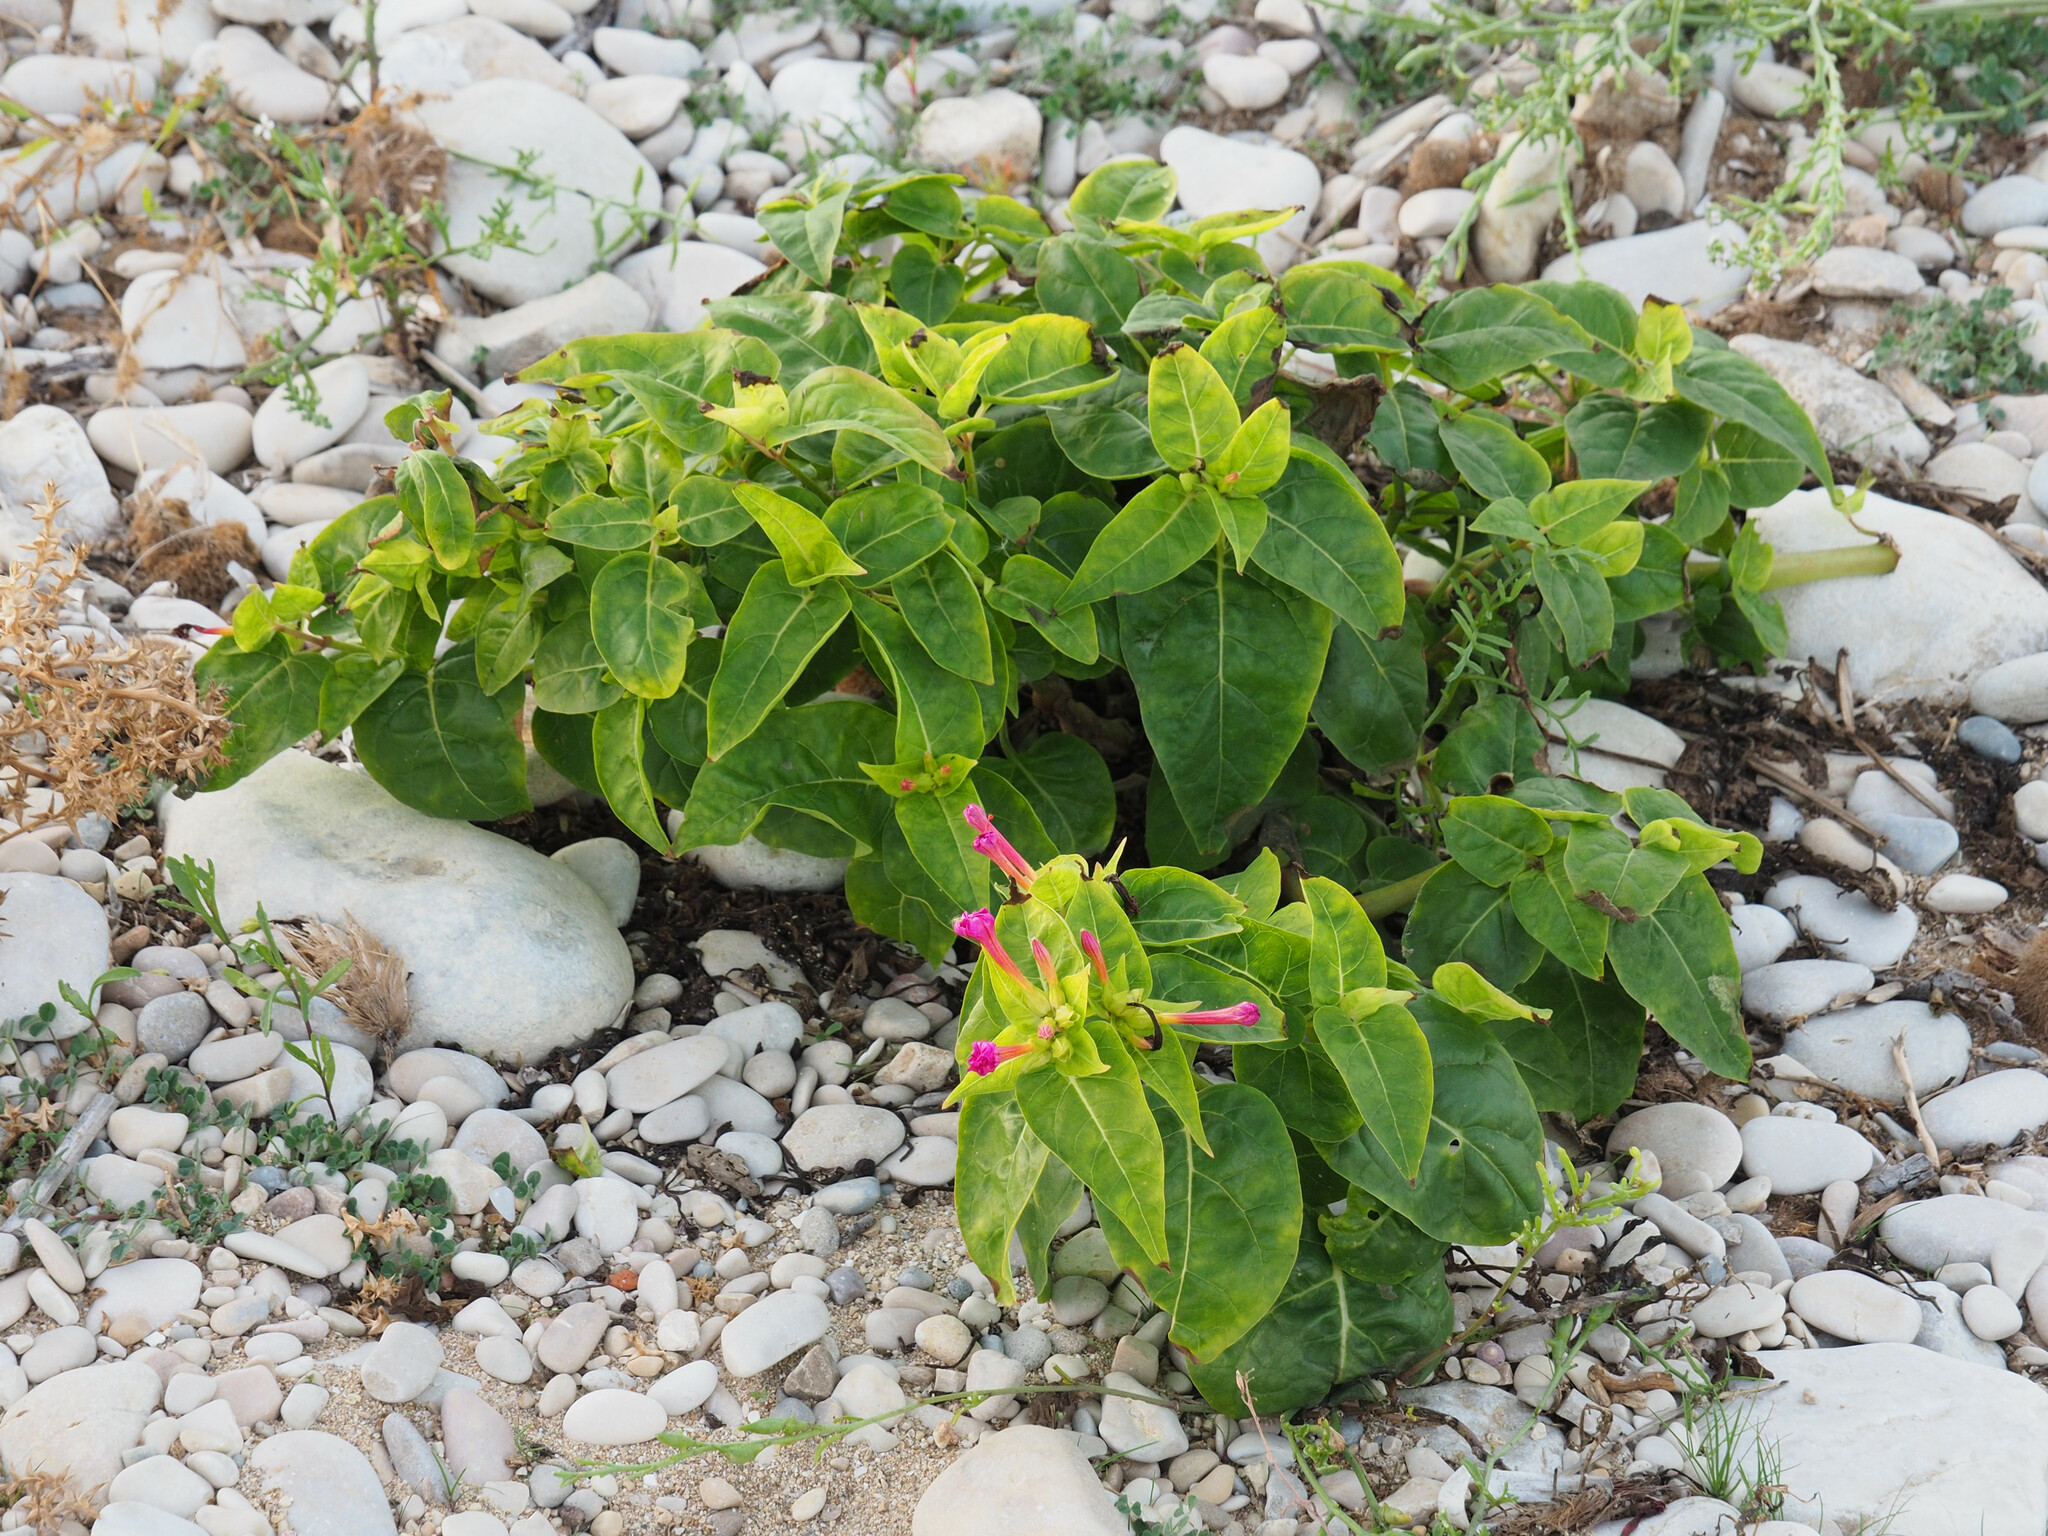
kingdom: Plantae
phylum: Tracheophyta
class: Magnoliopsida
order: Caryophyllales
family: Nyctaginaceae
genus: Mirabilis
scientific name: Mirabilis jalapa
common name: Marvel-of-peru
